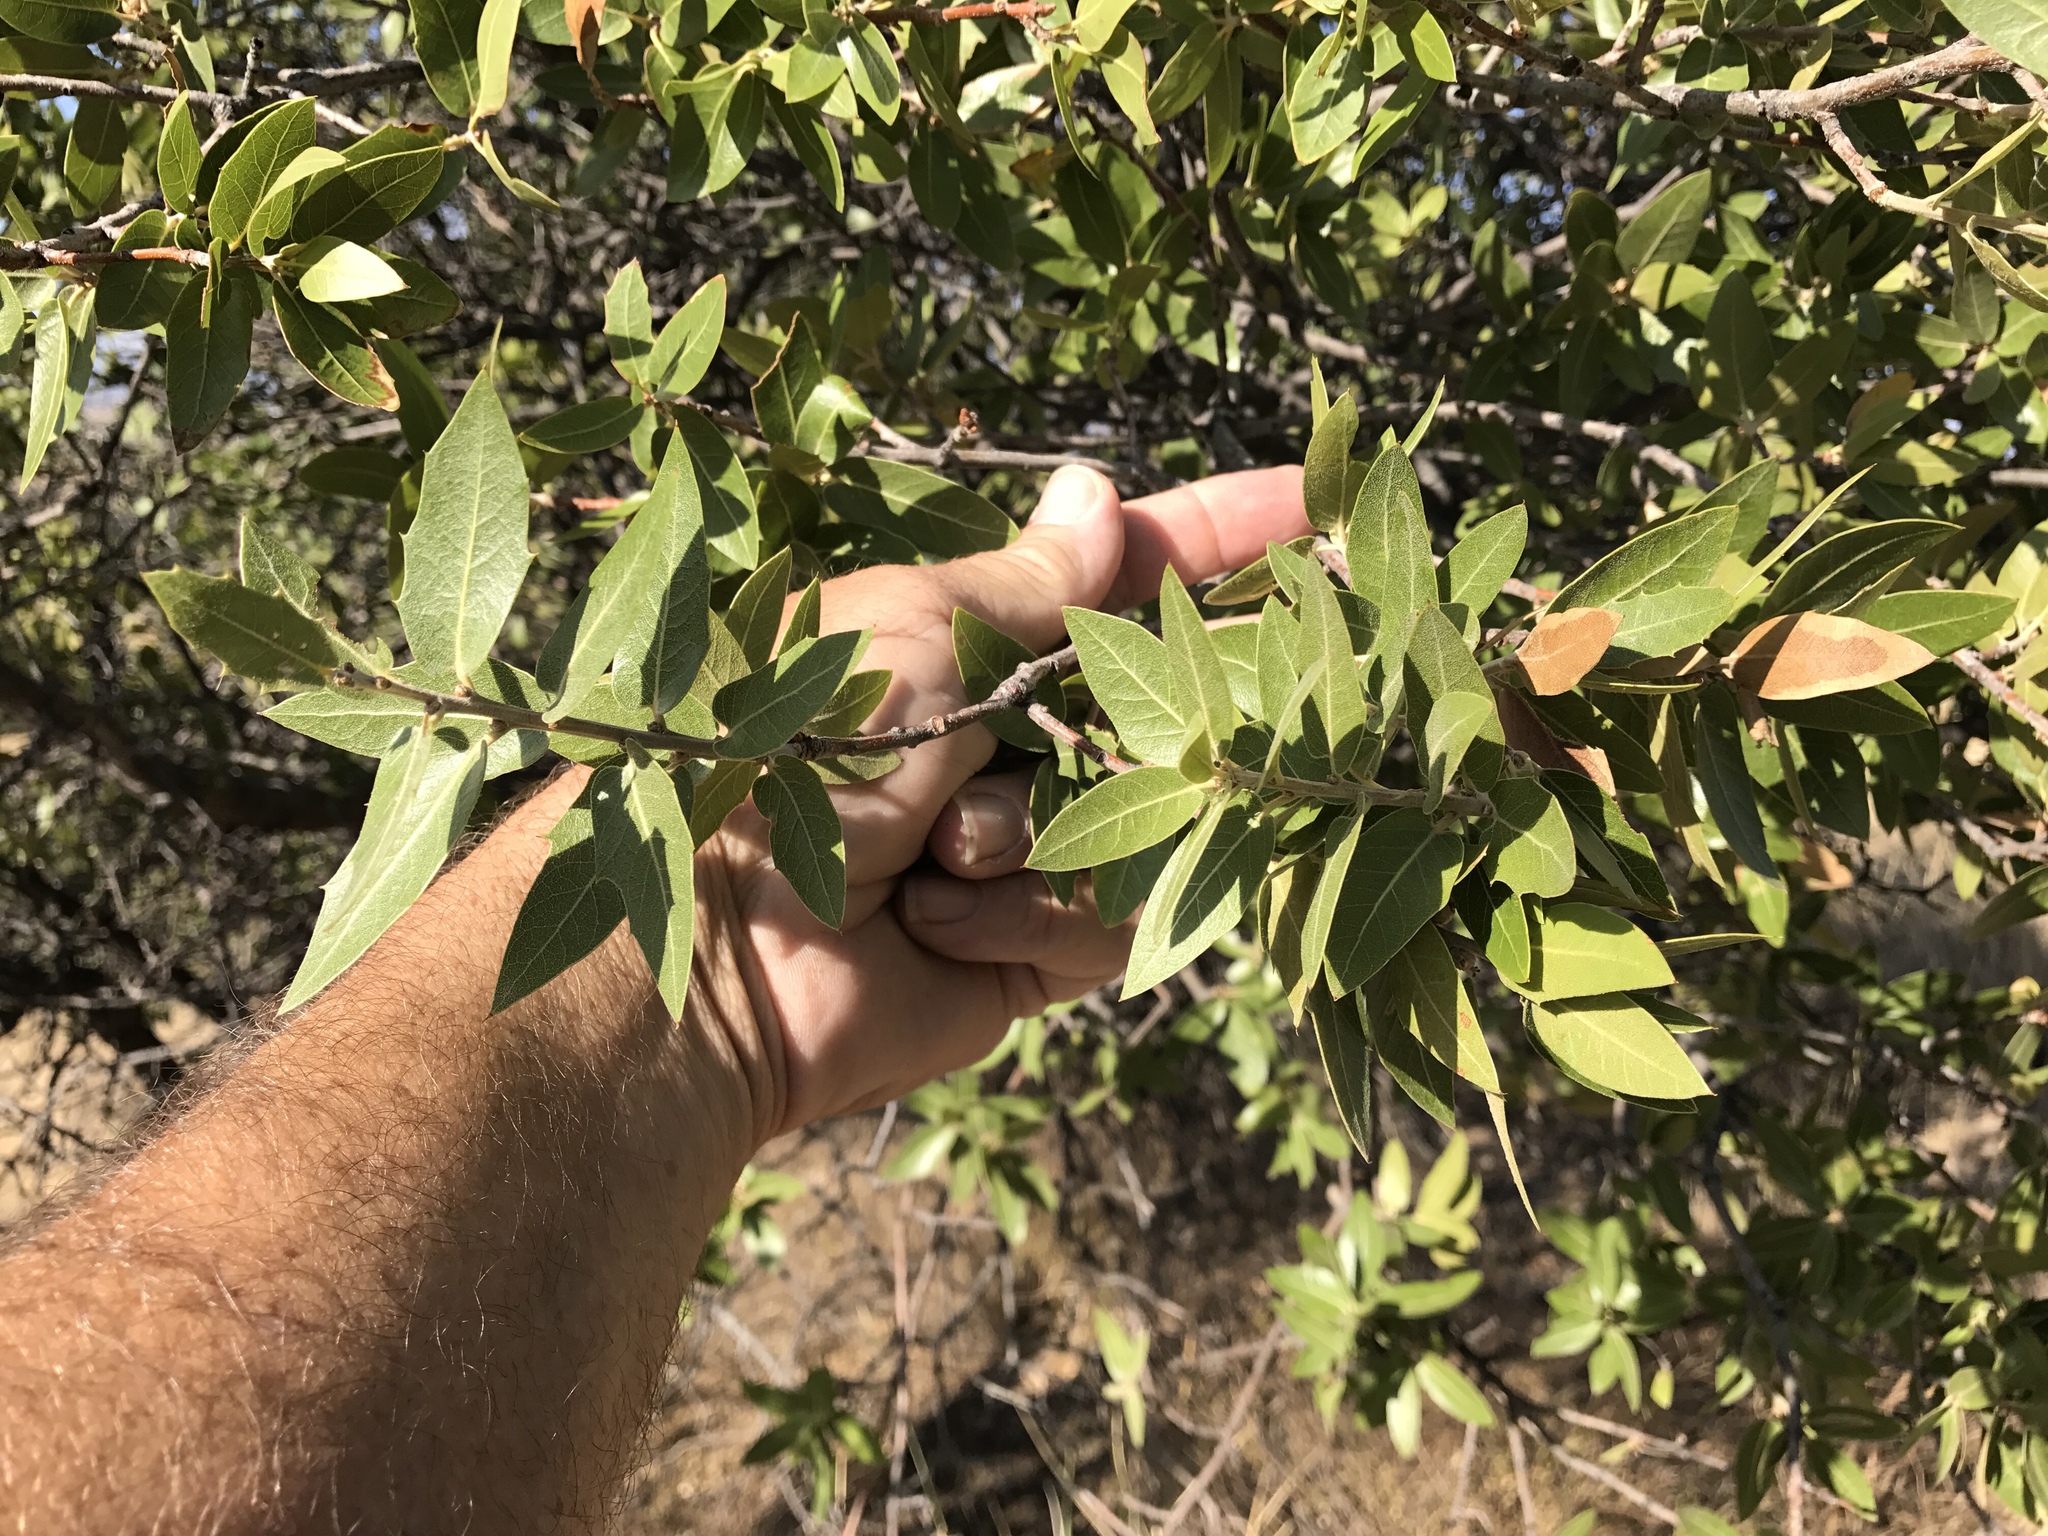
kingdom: Plantae
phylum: Tracheophyta
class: Magnoliopsida
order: Fagales
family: Fagaceae
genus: Quercus
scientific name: Quercus emoryi
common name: Emory oak
